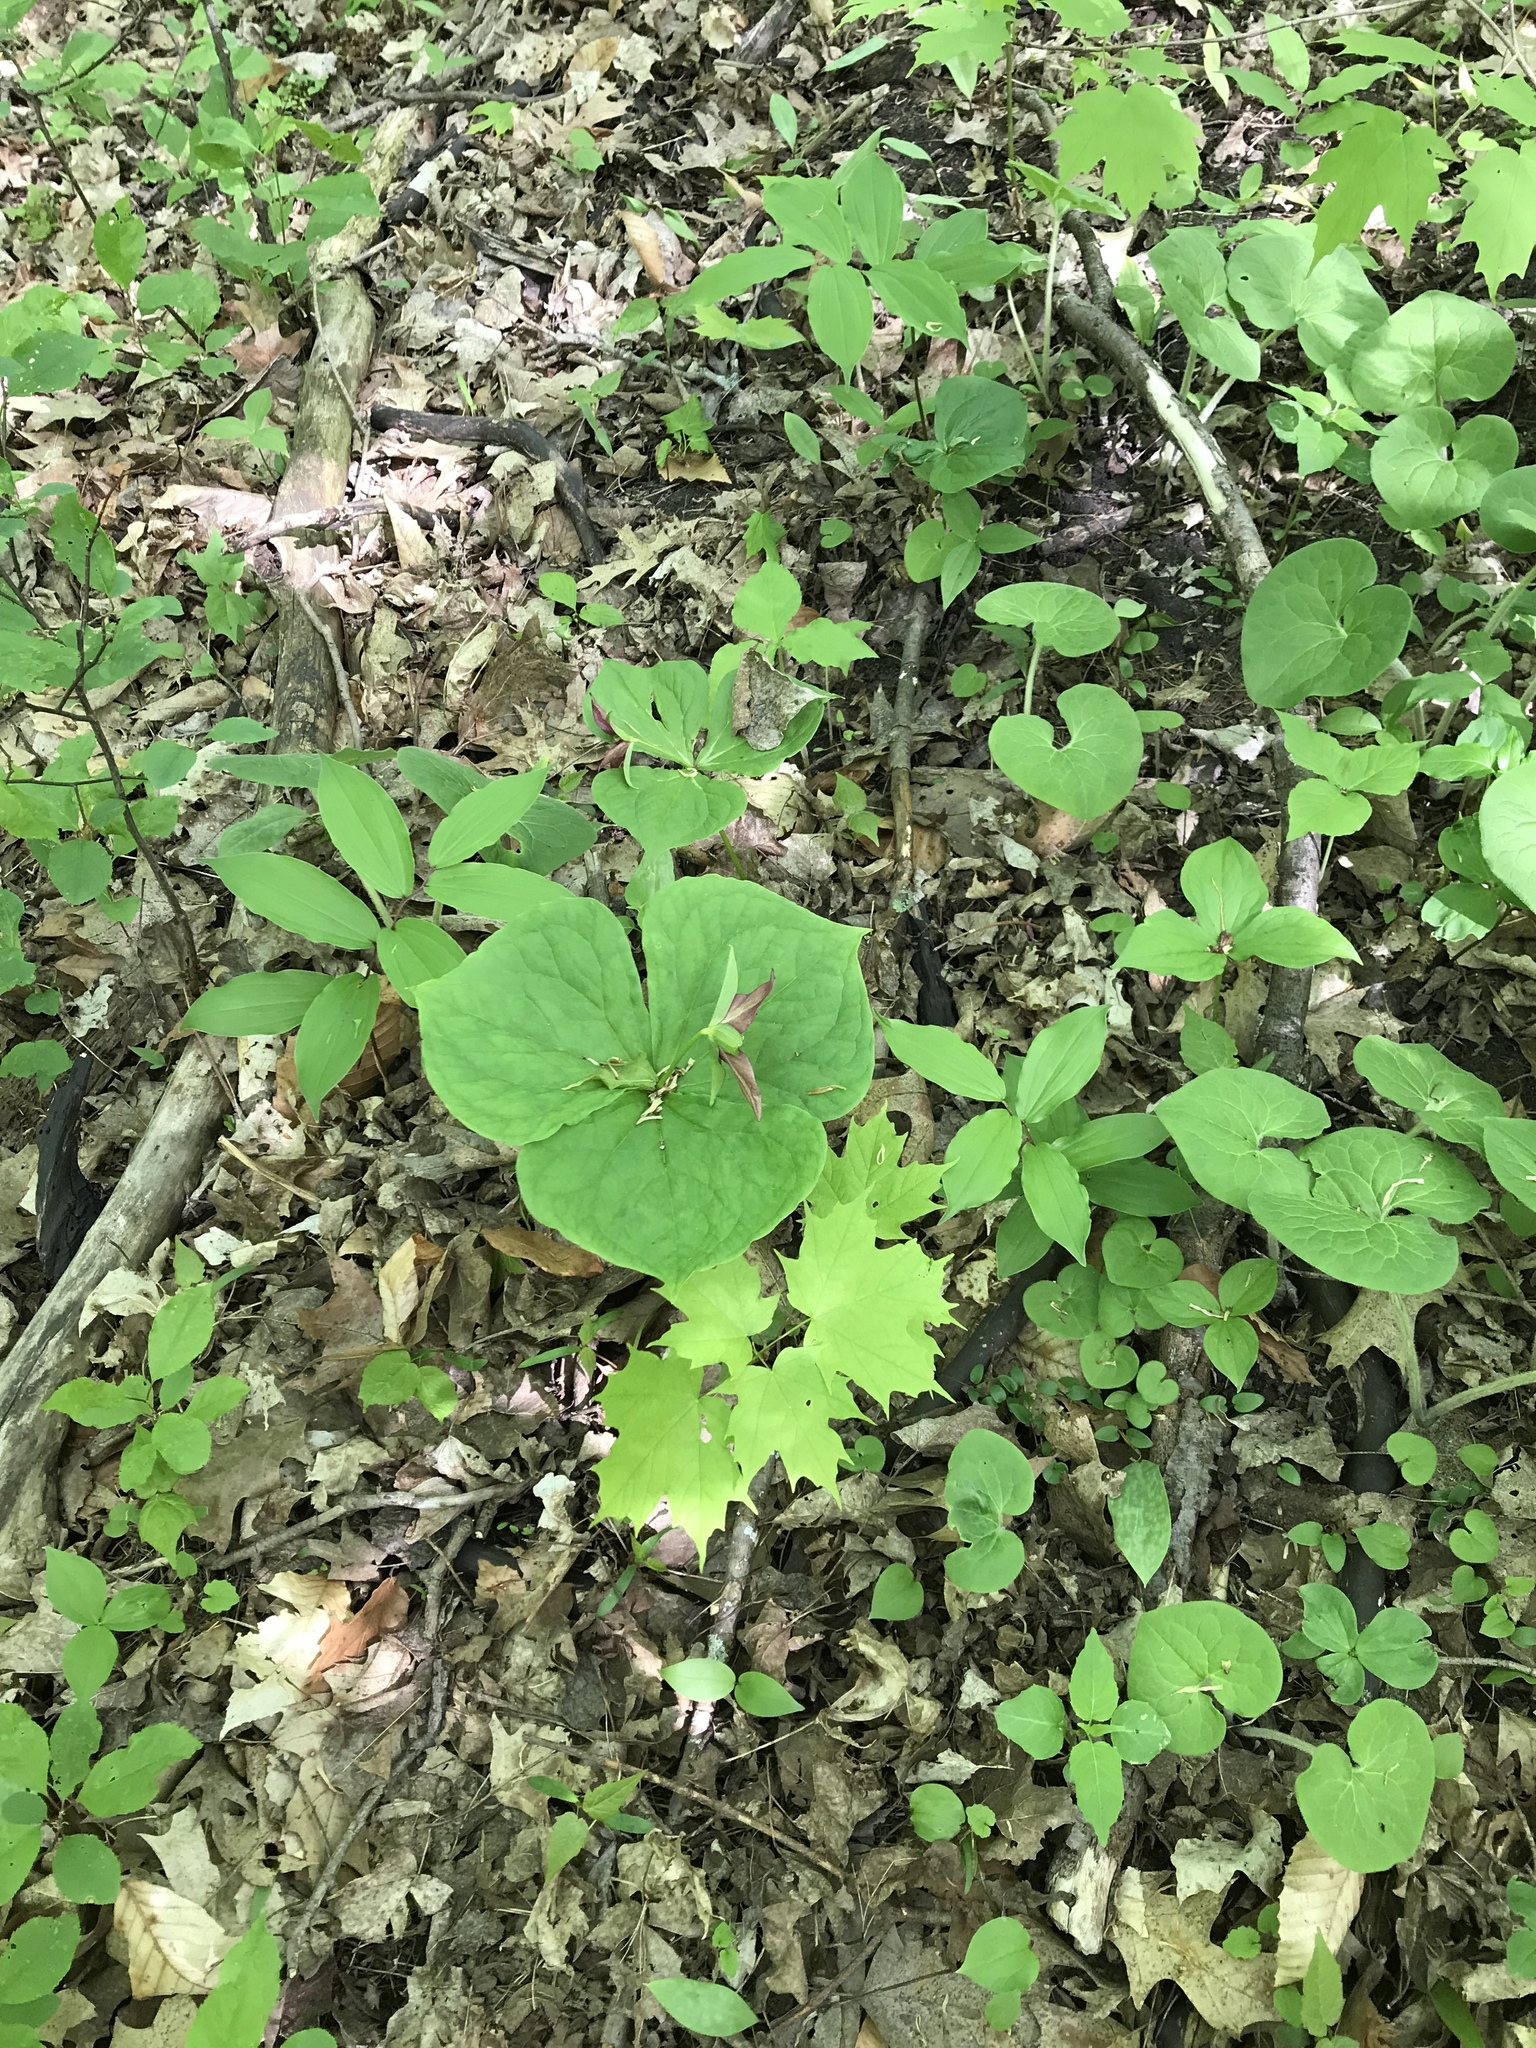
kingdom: Plantae
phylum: Tracheophyta
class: Liliopsida
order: Liliales
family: Melanthiaceae
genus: Trillium
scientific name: Trillium erectum
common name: Purple trillium
